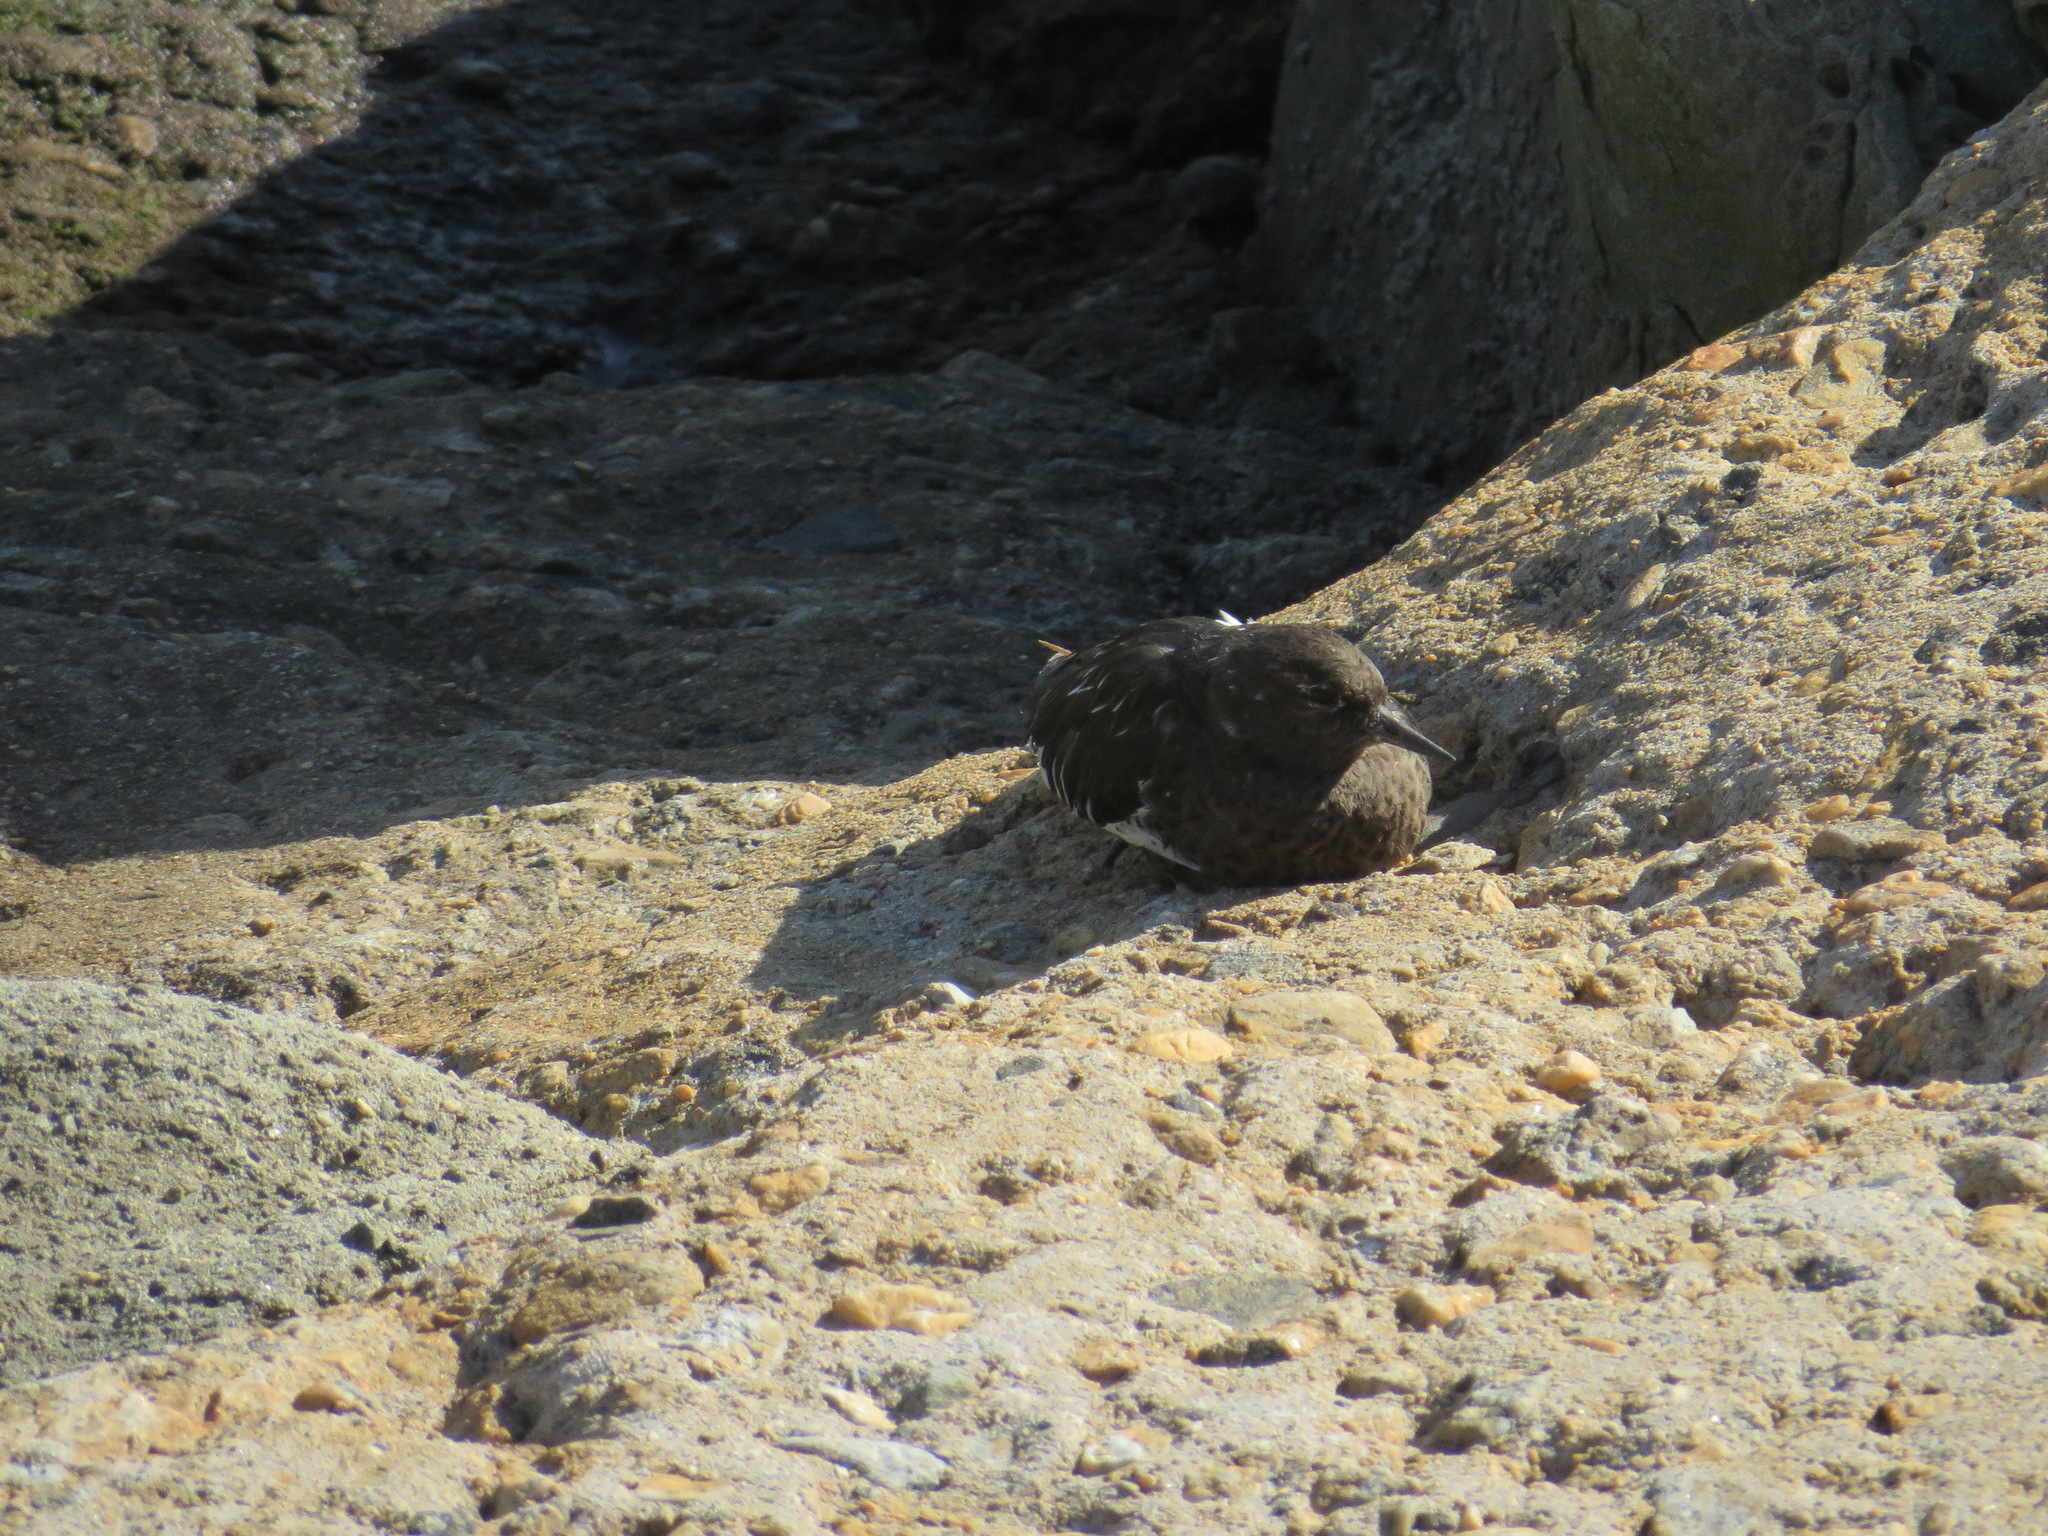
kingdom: Animalia
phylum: Chordata
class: Aves
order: Charadriiformes
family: Scolopacidae
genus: Arenaria
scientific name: Arenaria melanocephala
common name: Black turnstone
